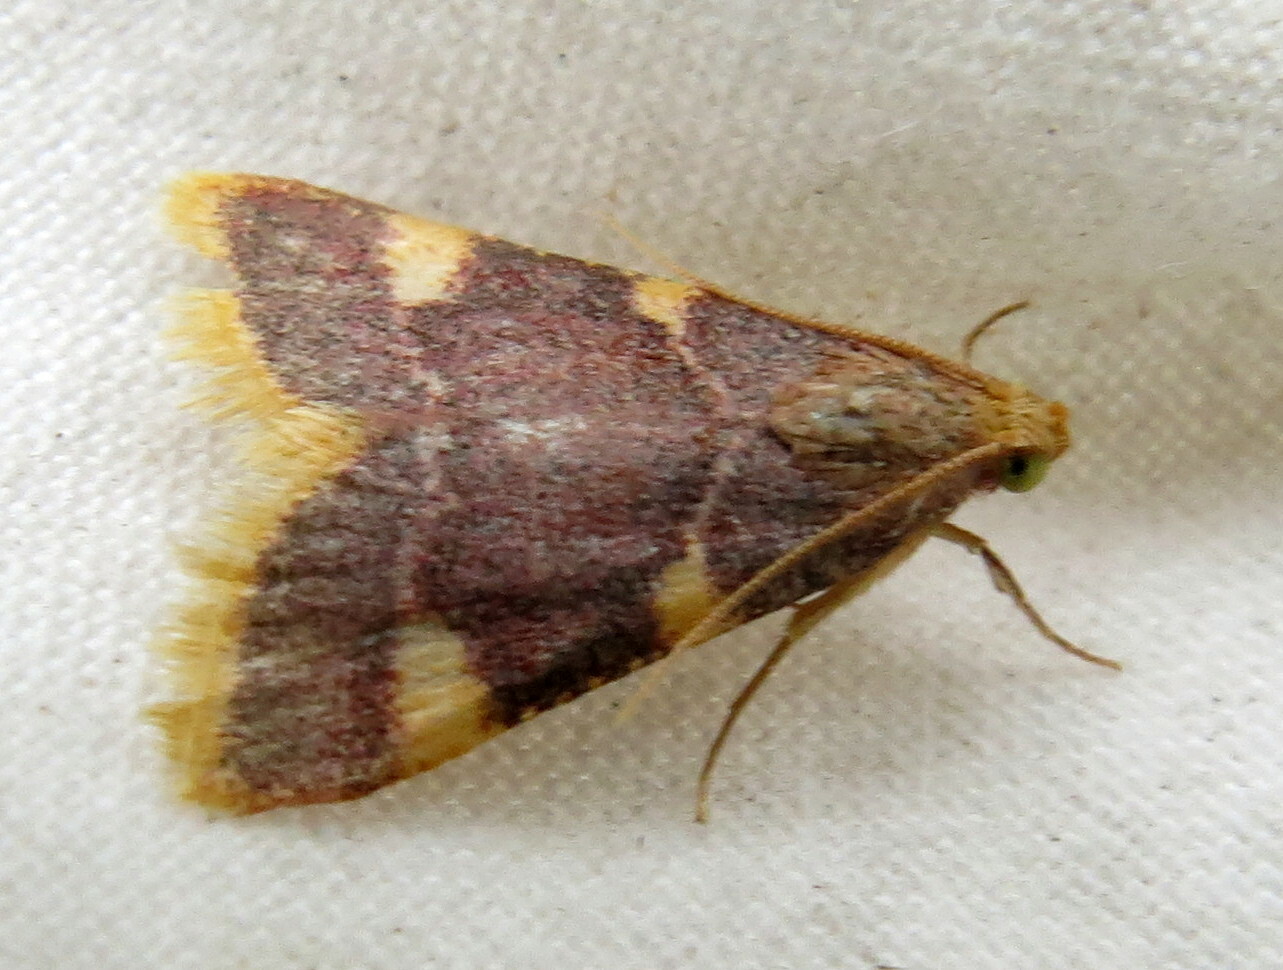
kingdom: Animalia
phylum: Arthropoda
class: Insecta
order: Lepidoptera
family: Pyralidae
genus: Hypsopygia
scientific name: Hypsopygia costalis
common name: Gold triangle
